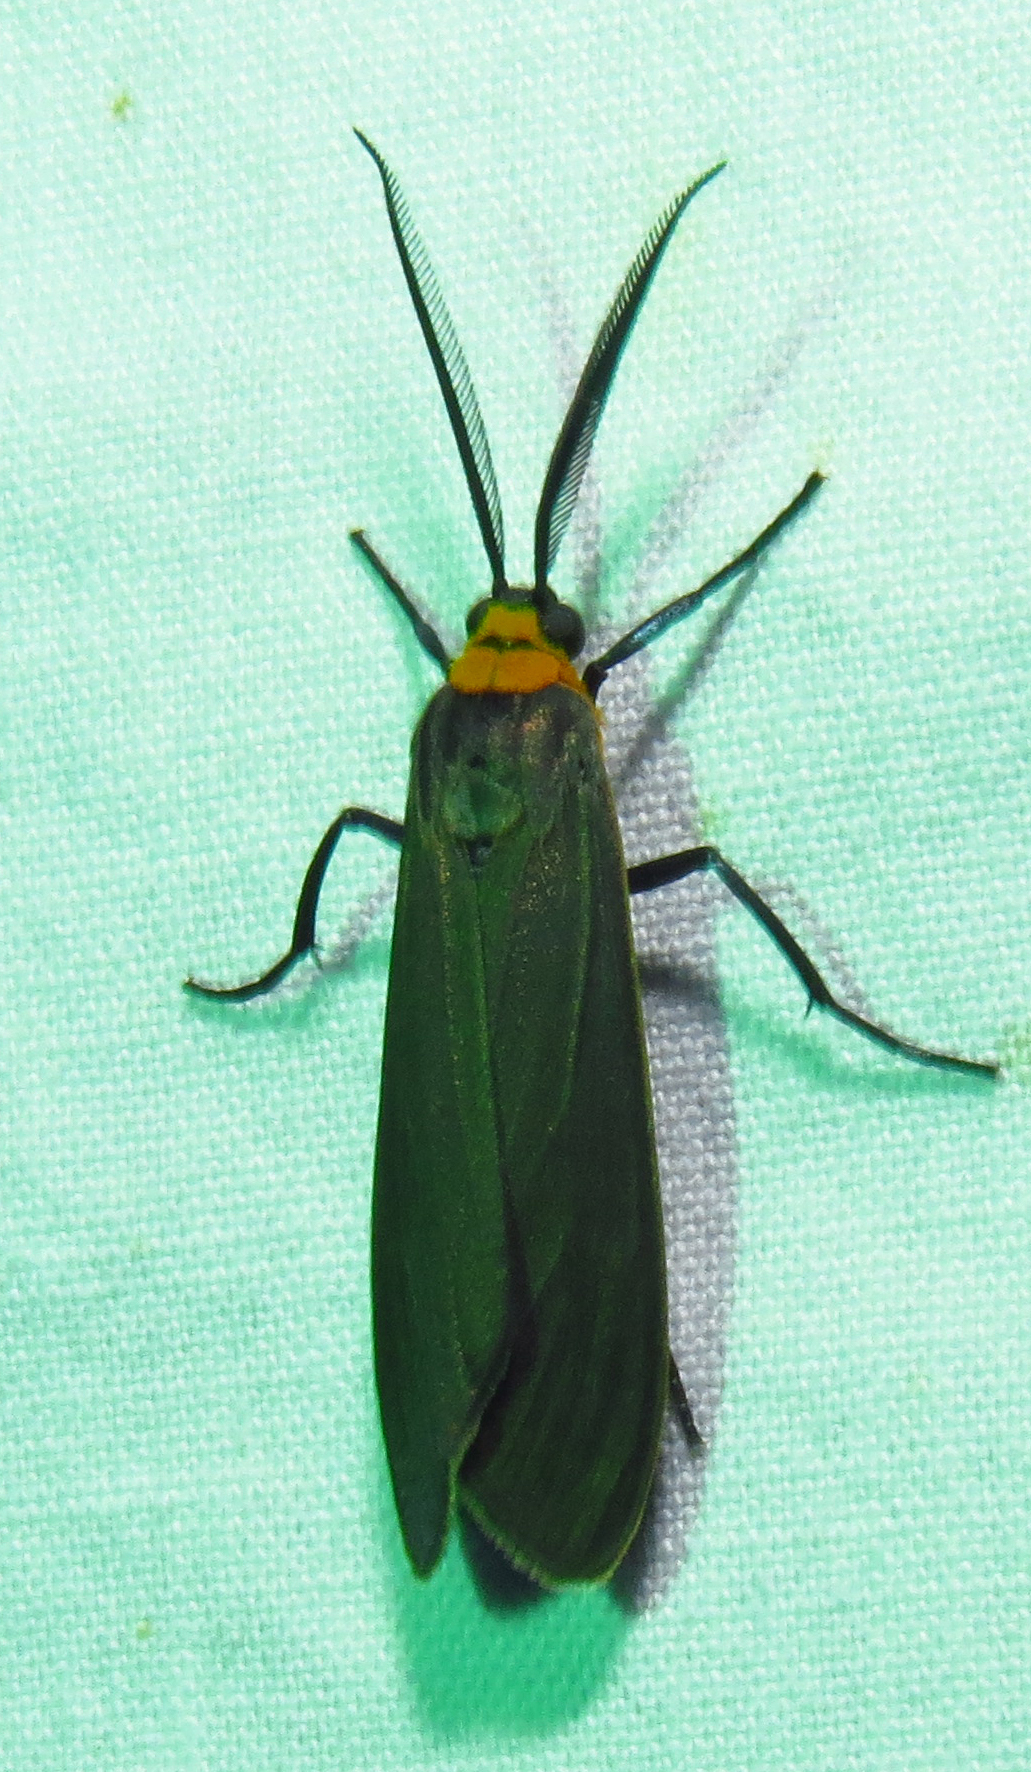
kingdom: Animalia
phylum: Arthropoda
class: Insecta
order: Lepidoptera
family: Erebidae
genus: Cisseps
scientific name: Cisseps fulvicollis
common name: Yellow-collared scape moth
